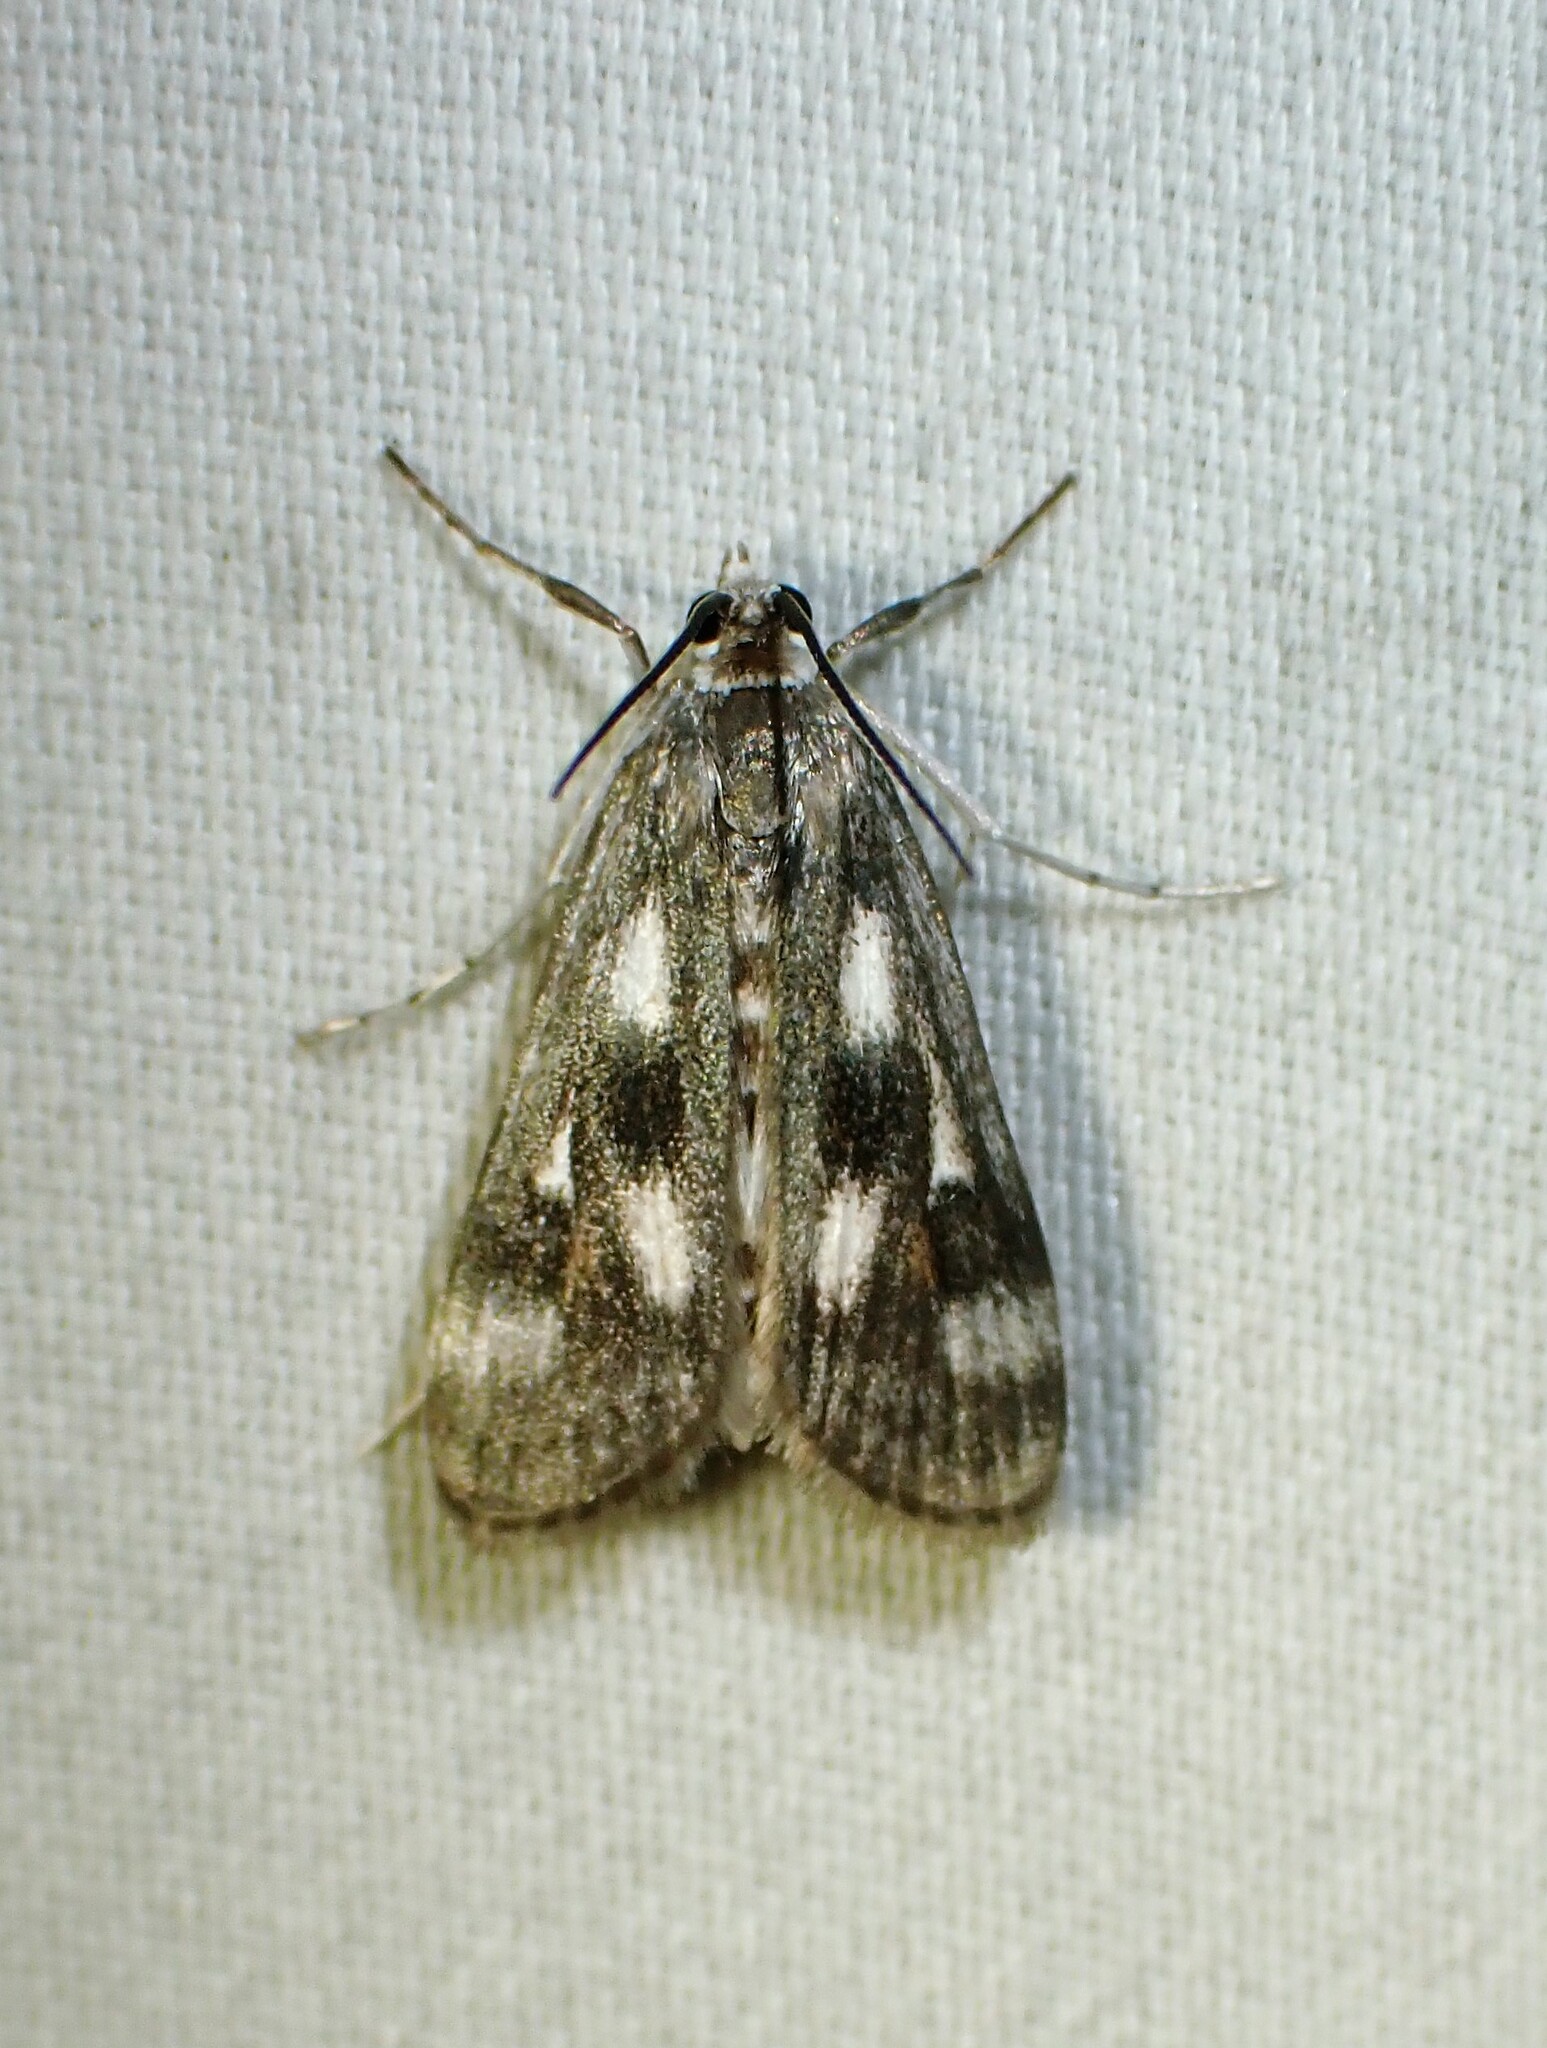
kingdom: Animalia
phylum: Arthropoda
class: Insecta
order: Lepidoptera
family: Crambidae
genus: Parapoynx
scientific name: Parapoynx maculalis
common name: Polymorphic pondweed moth
